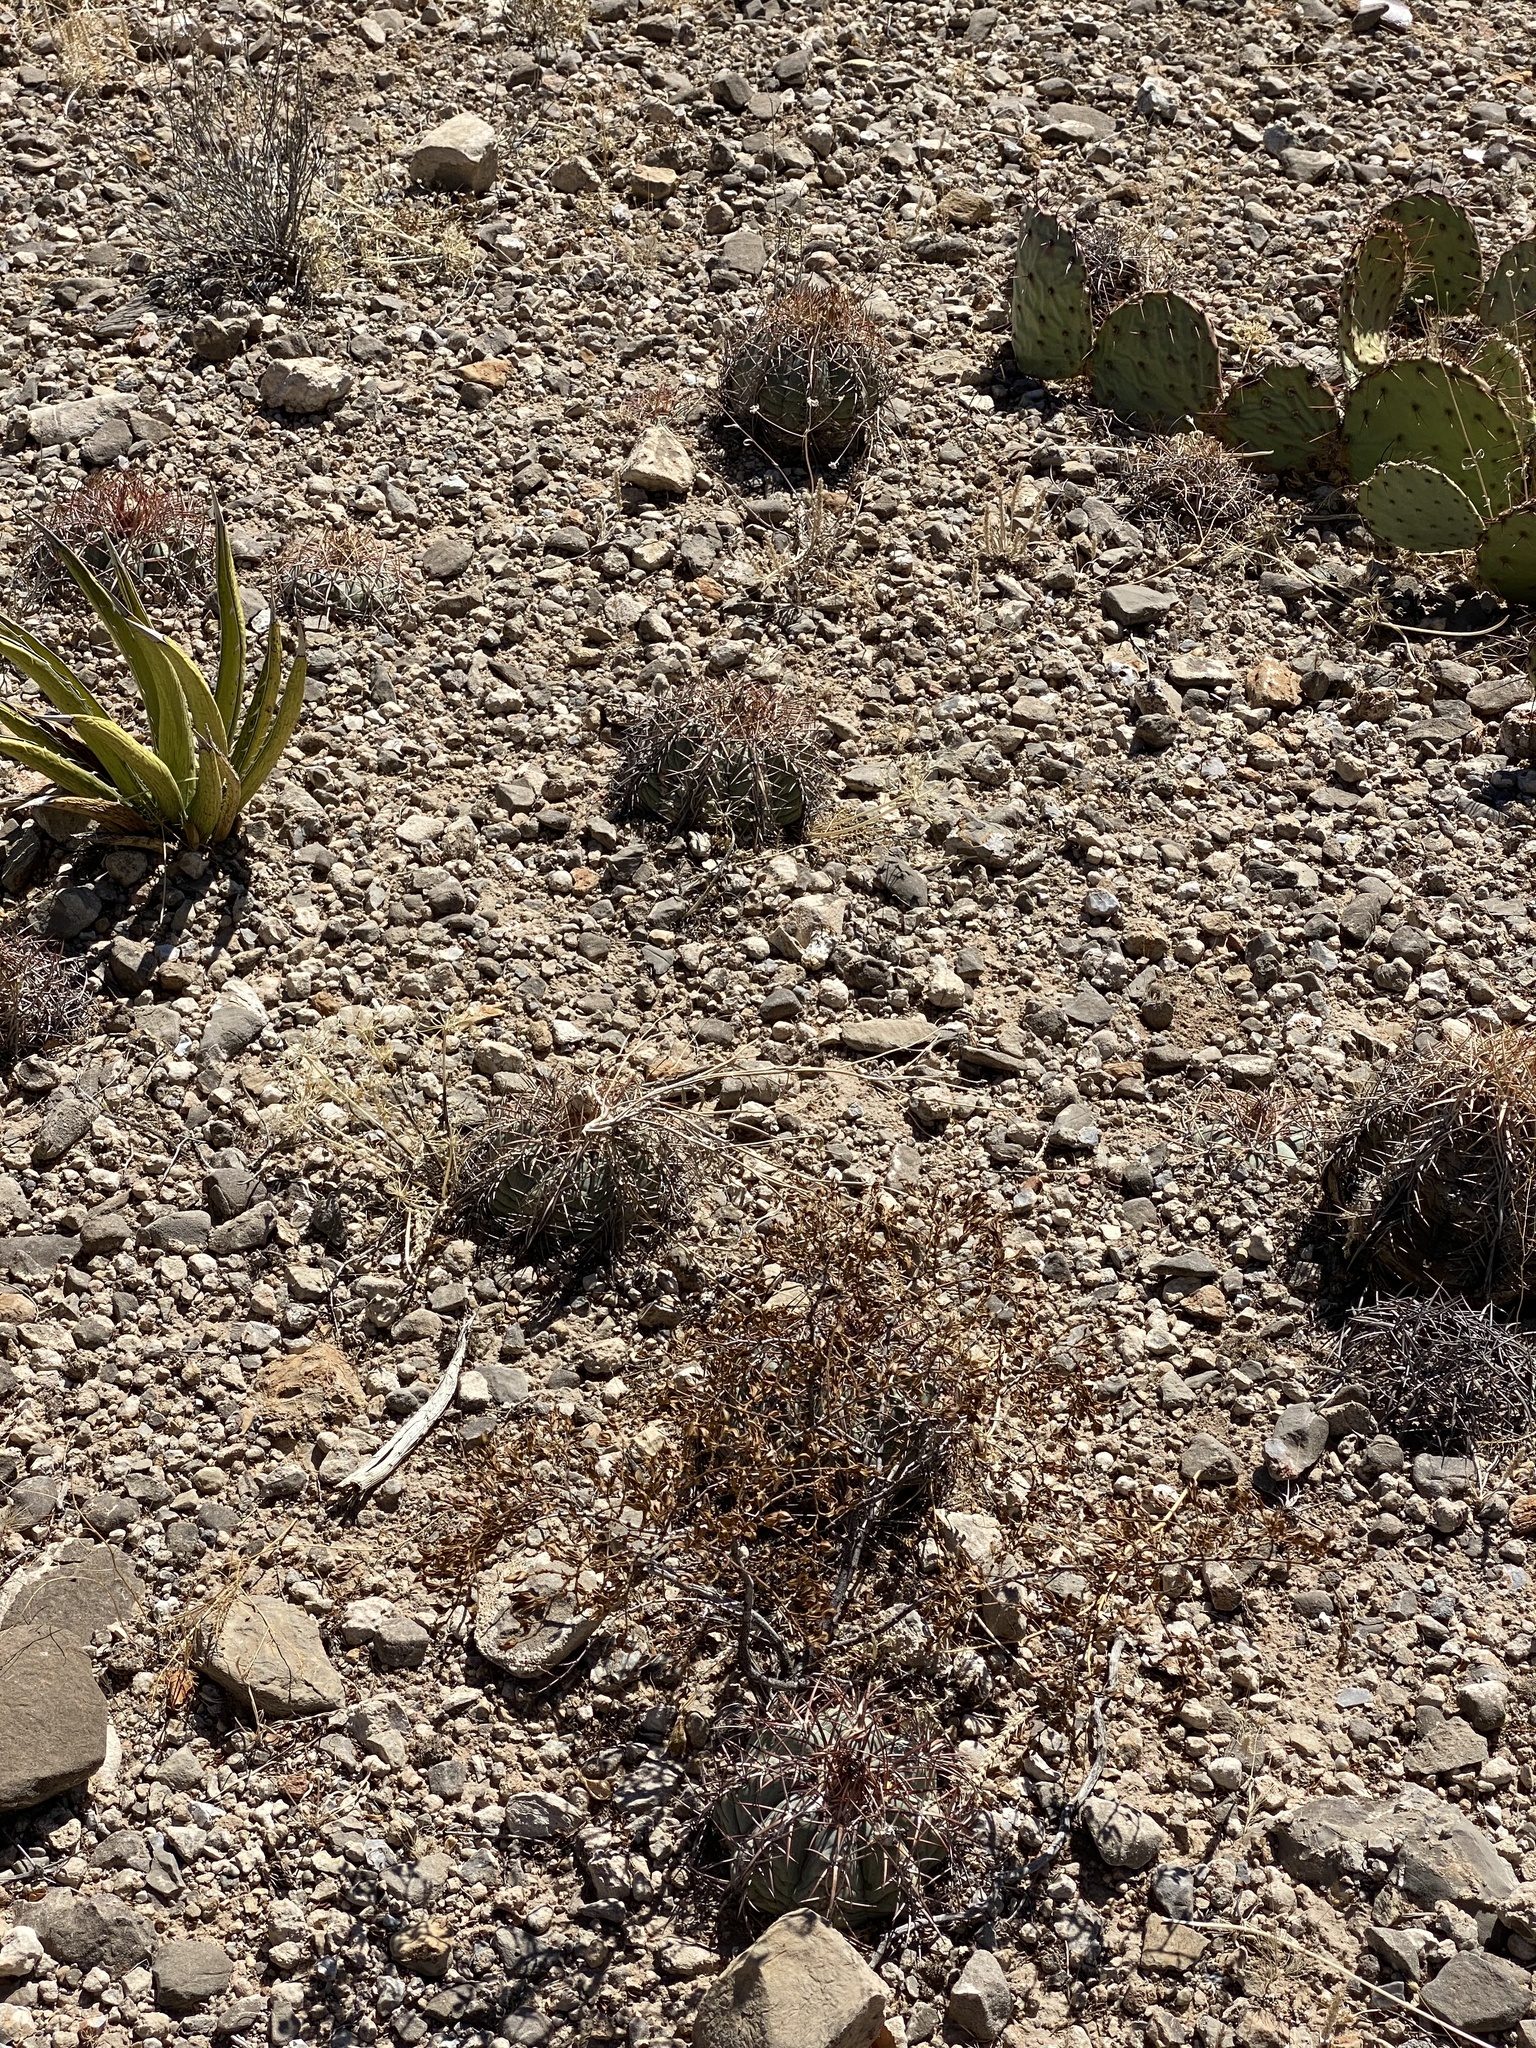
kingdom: Plantae
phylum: Tracheophyta
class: Magnoliopsida
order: Caryophyllales
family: Cactaceae
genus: Echinocactus
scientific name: Echinocactus horizonthalonius
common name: Devilshead
